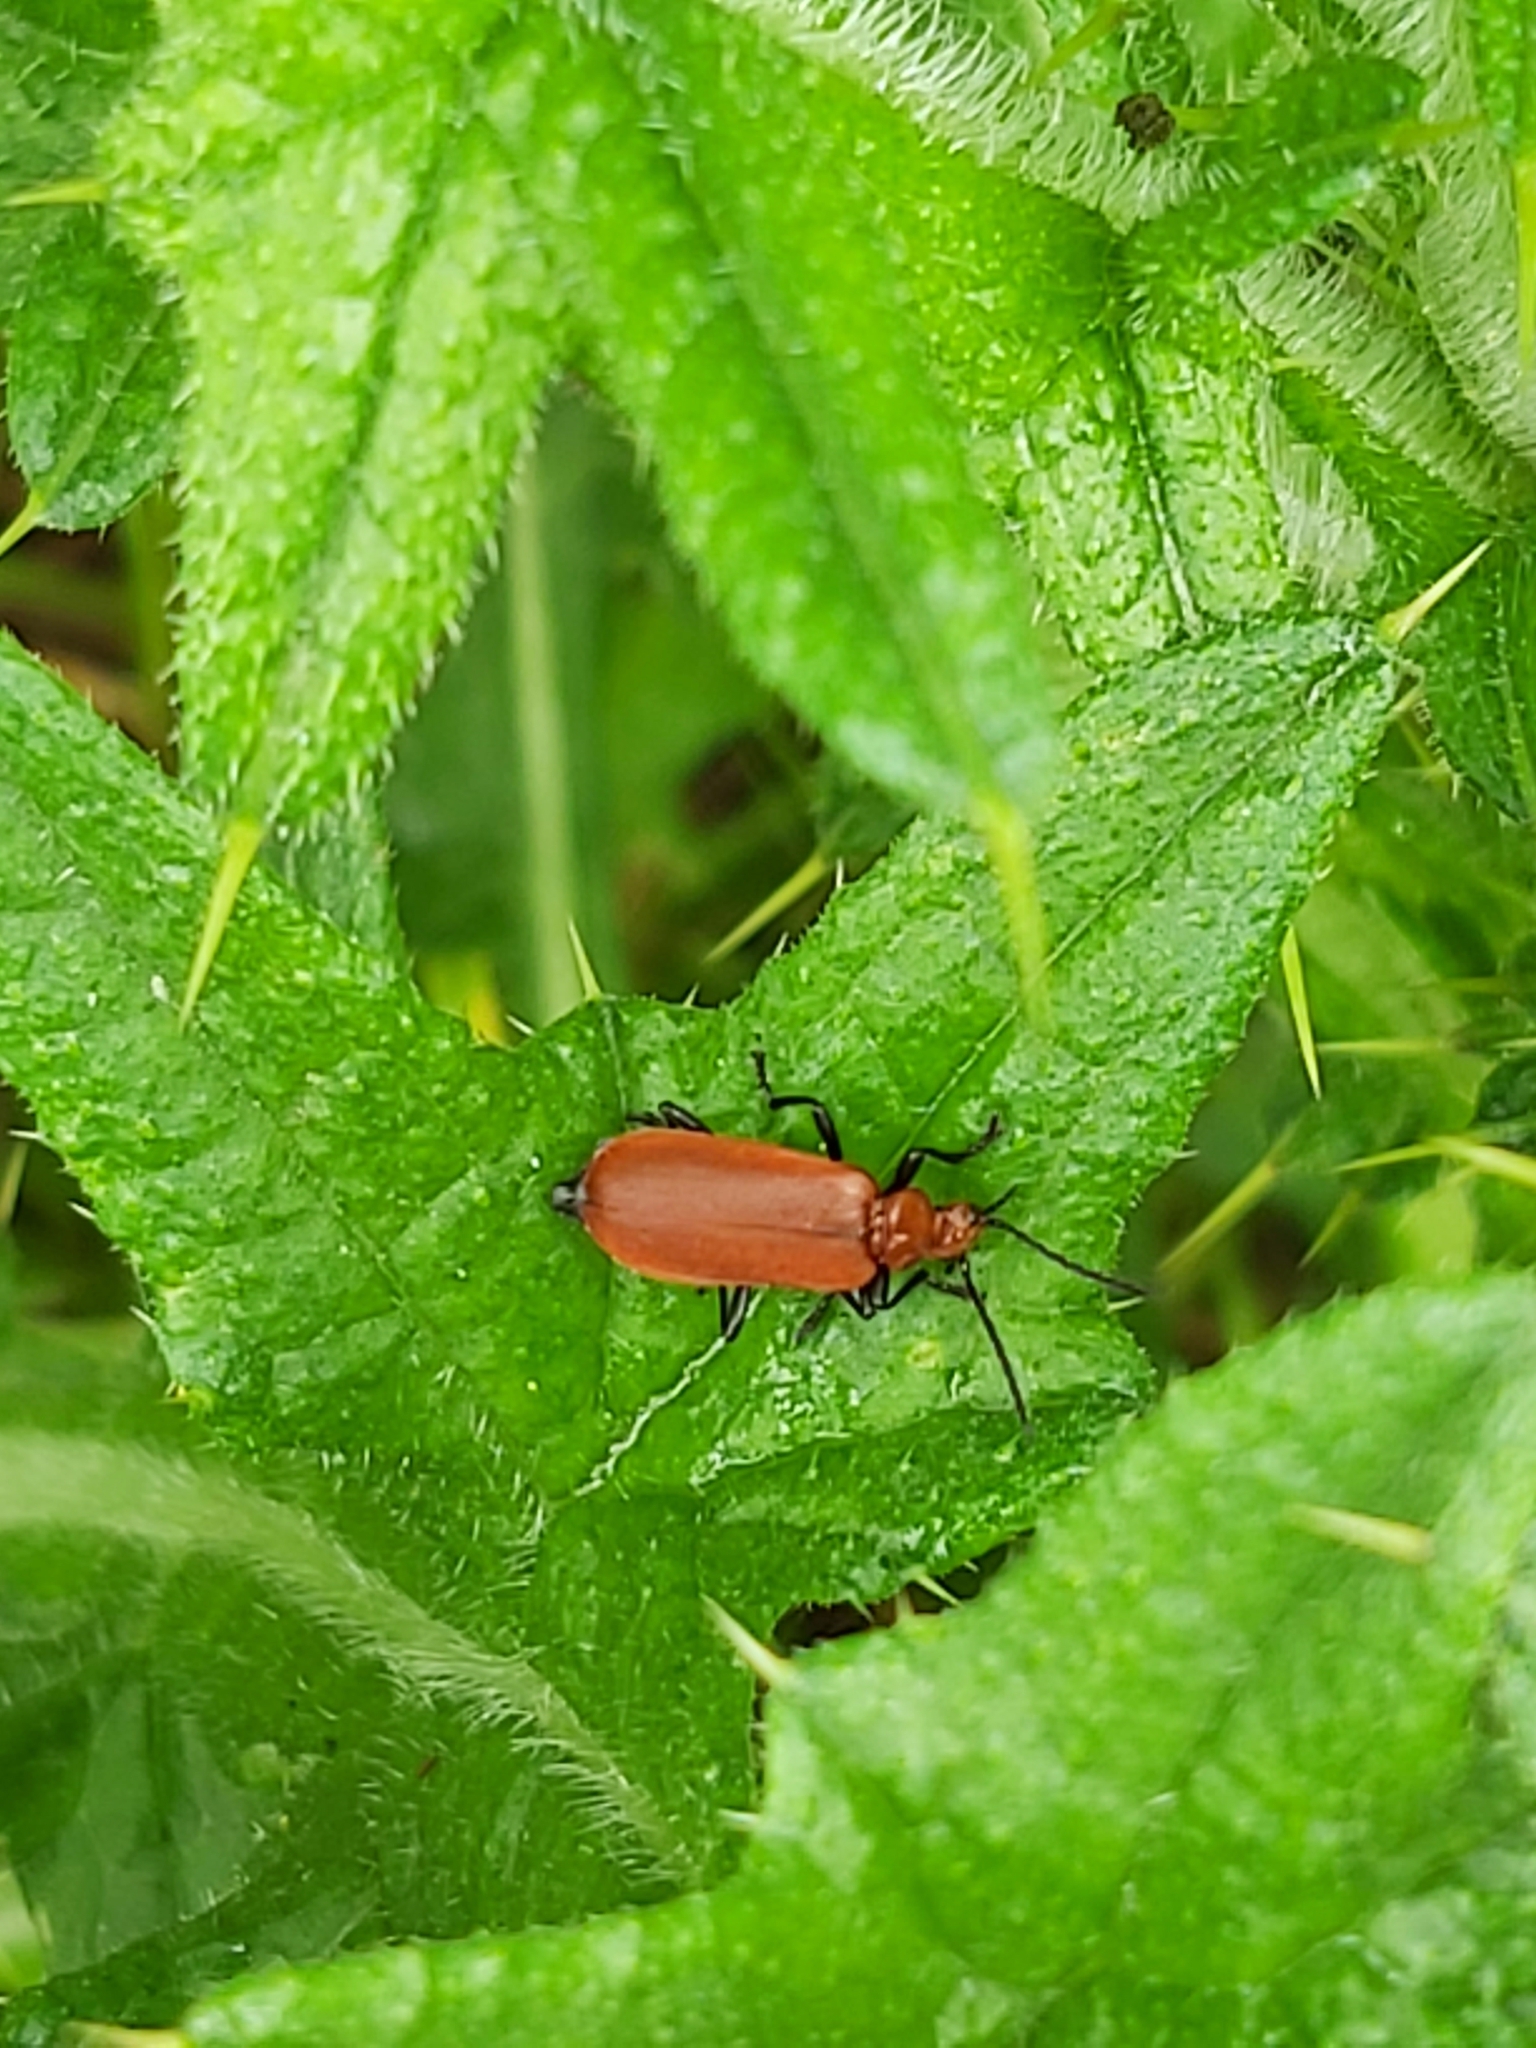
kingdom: Animalia
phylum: Arthropoda
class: Insecta
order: Coleoptera
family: Pyrochroidae
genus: Pyrochroa
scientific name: Pyrochroa serraticornis
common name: Red-headed cardinal beetle
